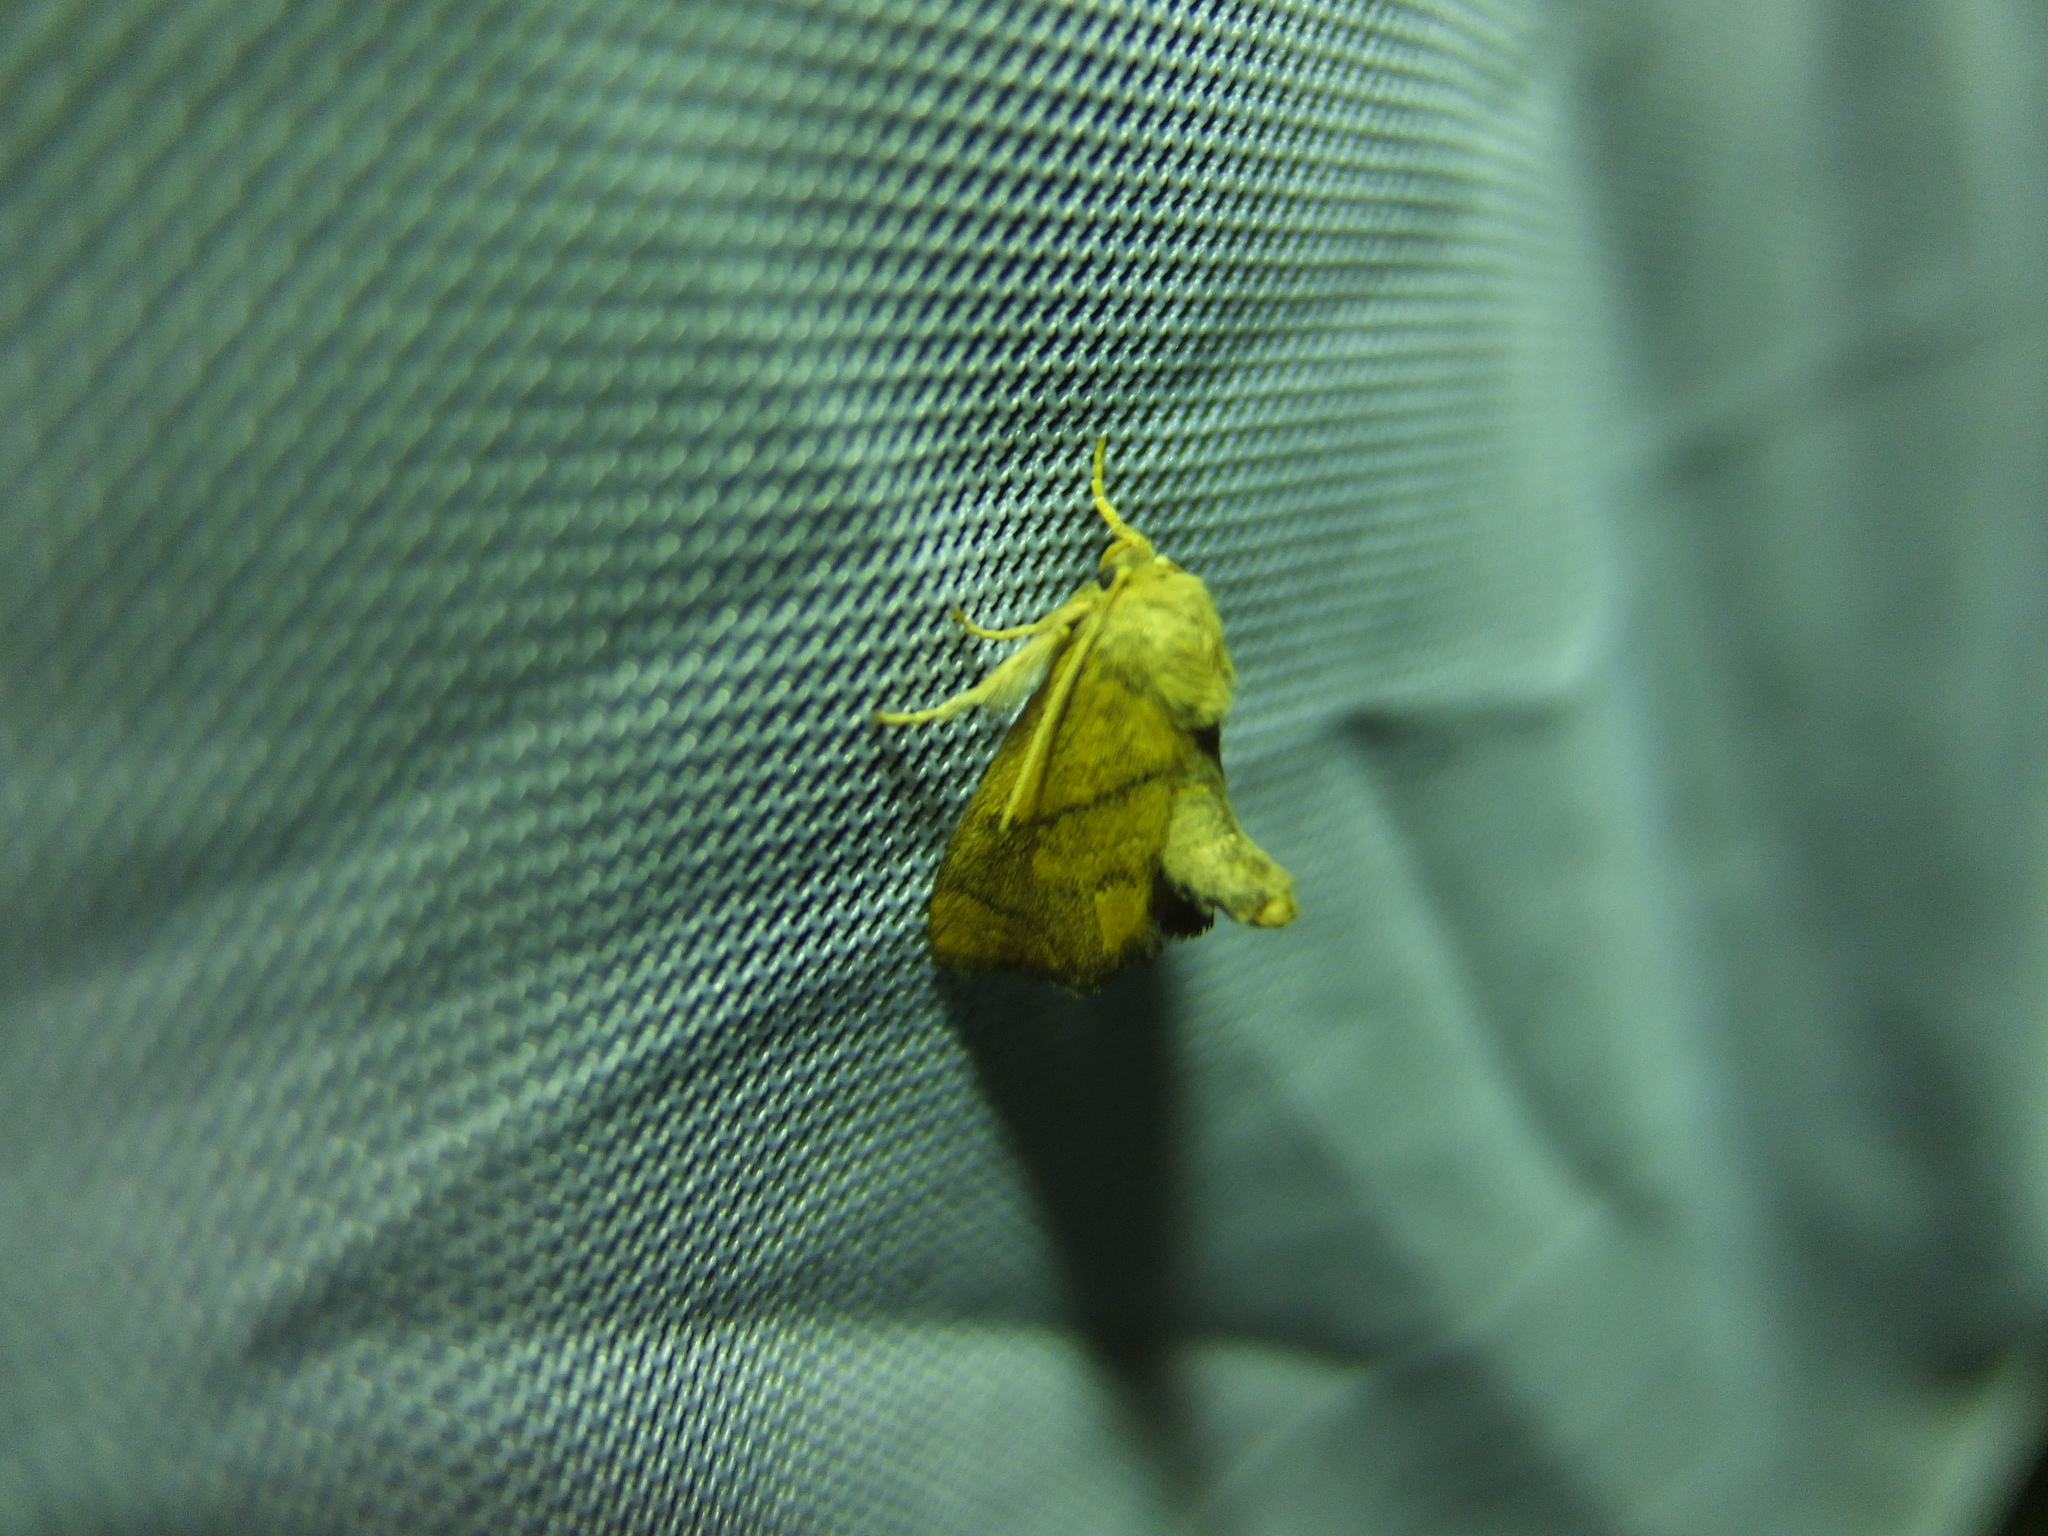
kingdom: Animalia
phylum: Arthropoda
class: Insecta
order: Lepidoptera
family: Limacodidae
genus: Apoda
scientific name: Apoda limacodes
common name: Festoon
